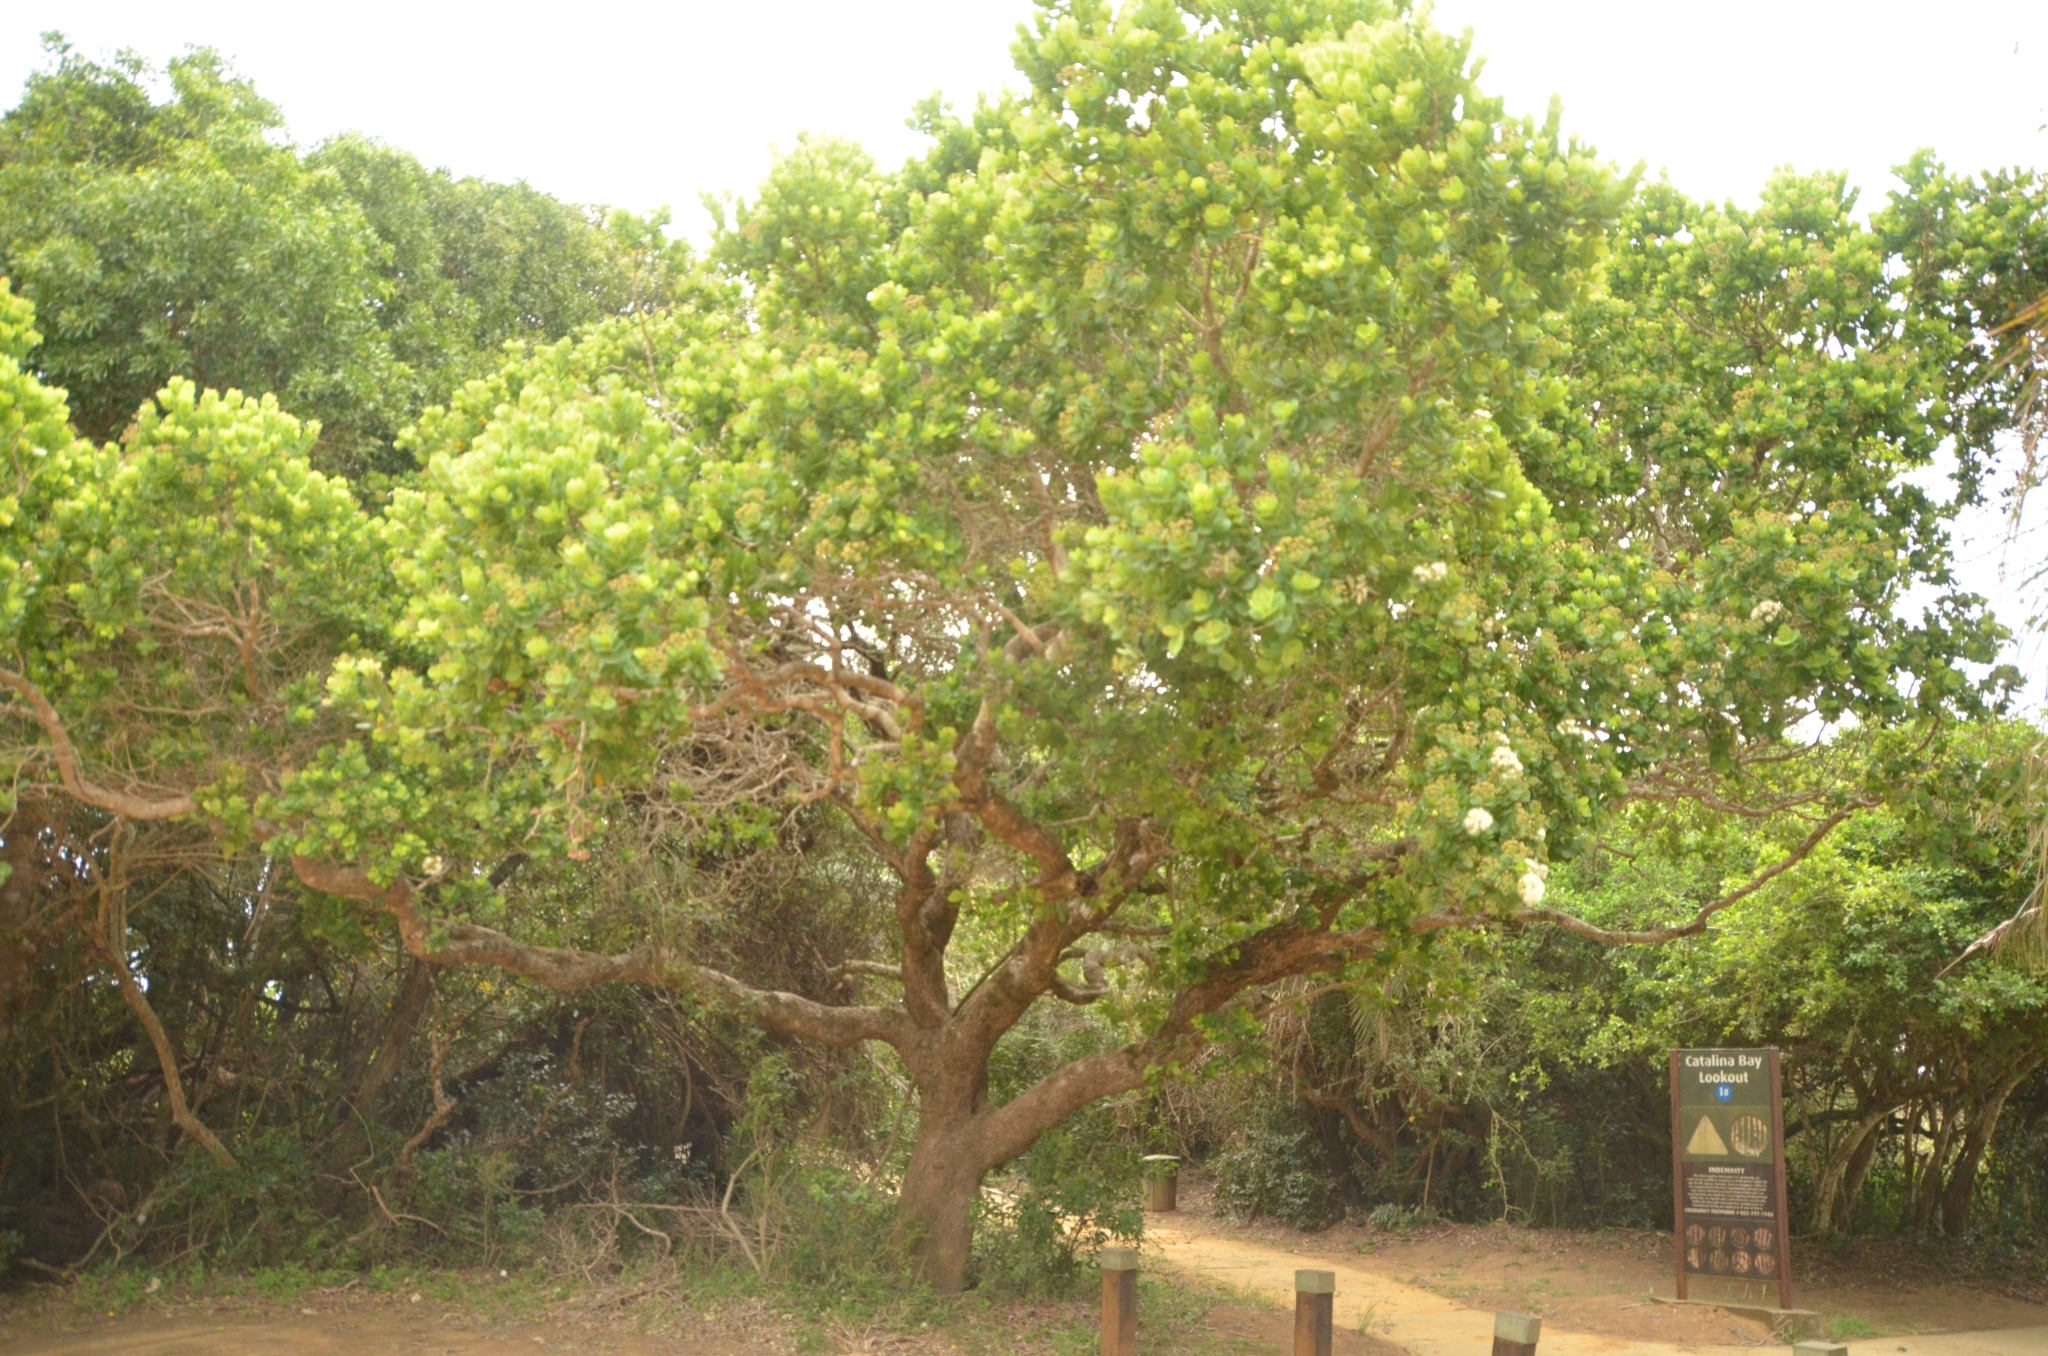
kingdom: Plantae
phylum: Tracheophyta
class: Magnoliopsida
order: Myrtales
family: Myrtaceae
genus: Syzygium
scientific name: Syzygium cordatum
